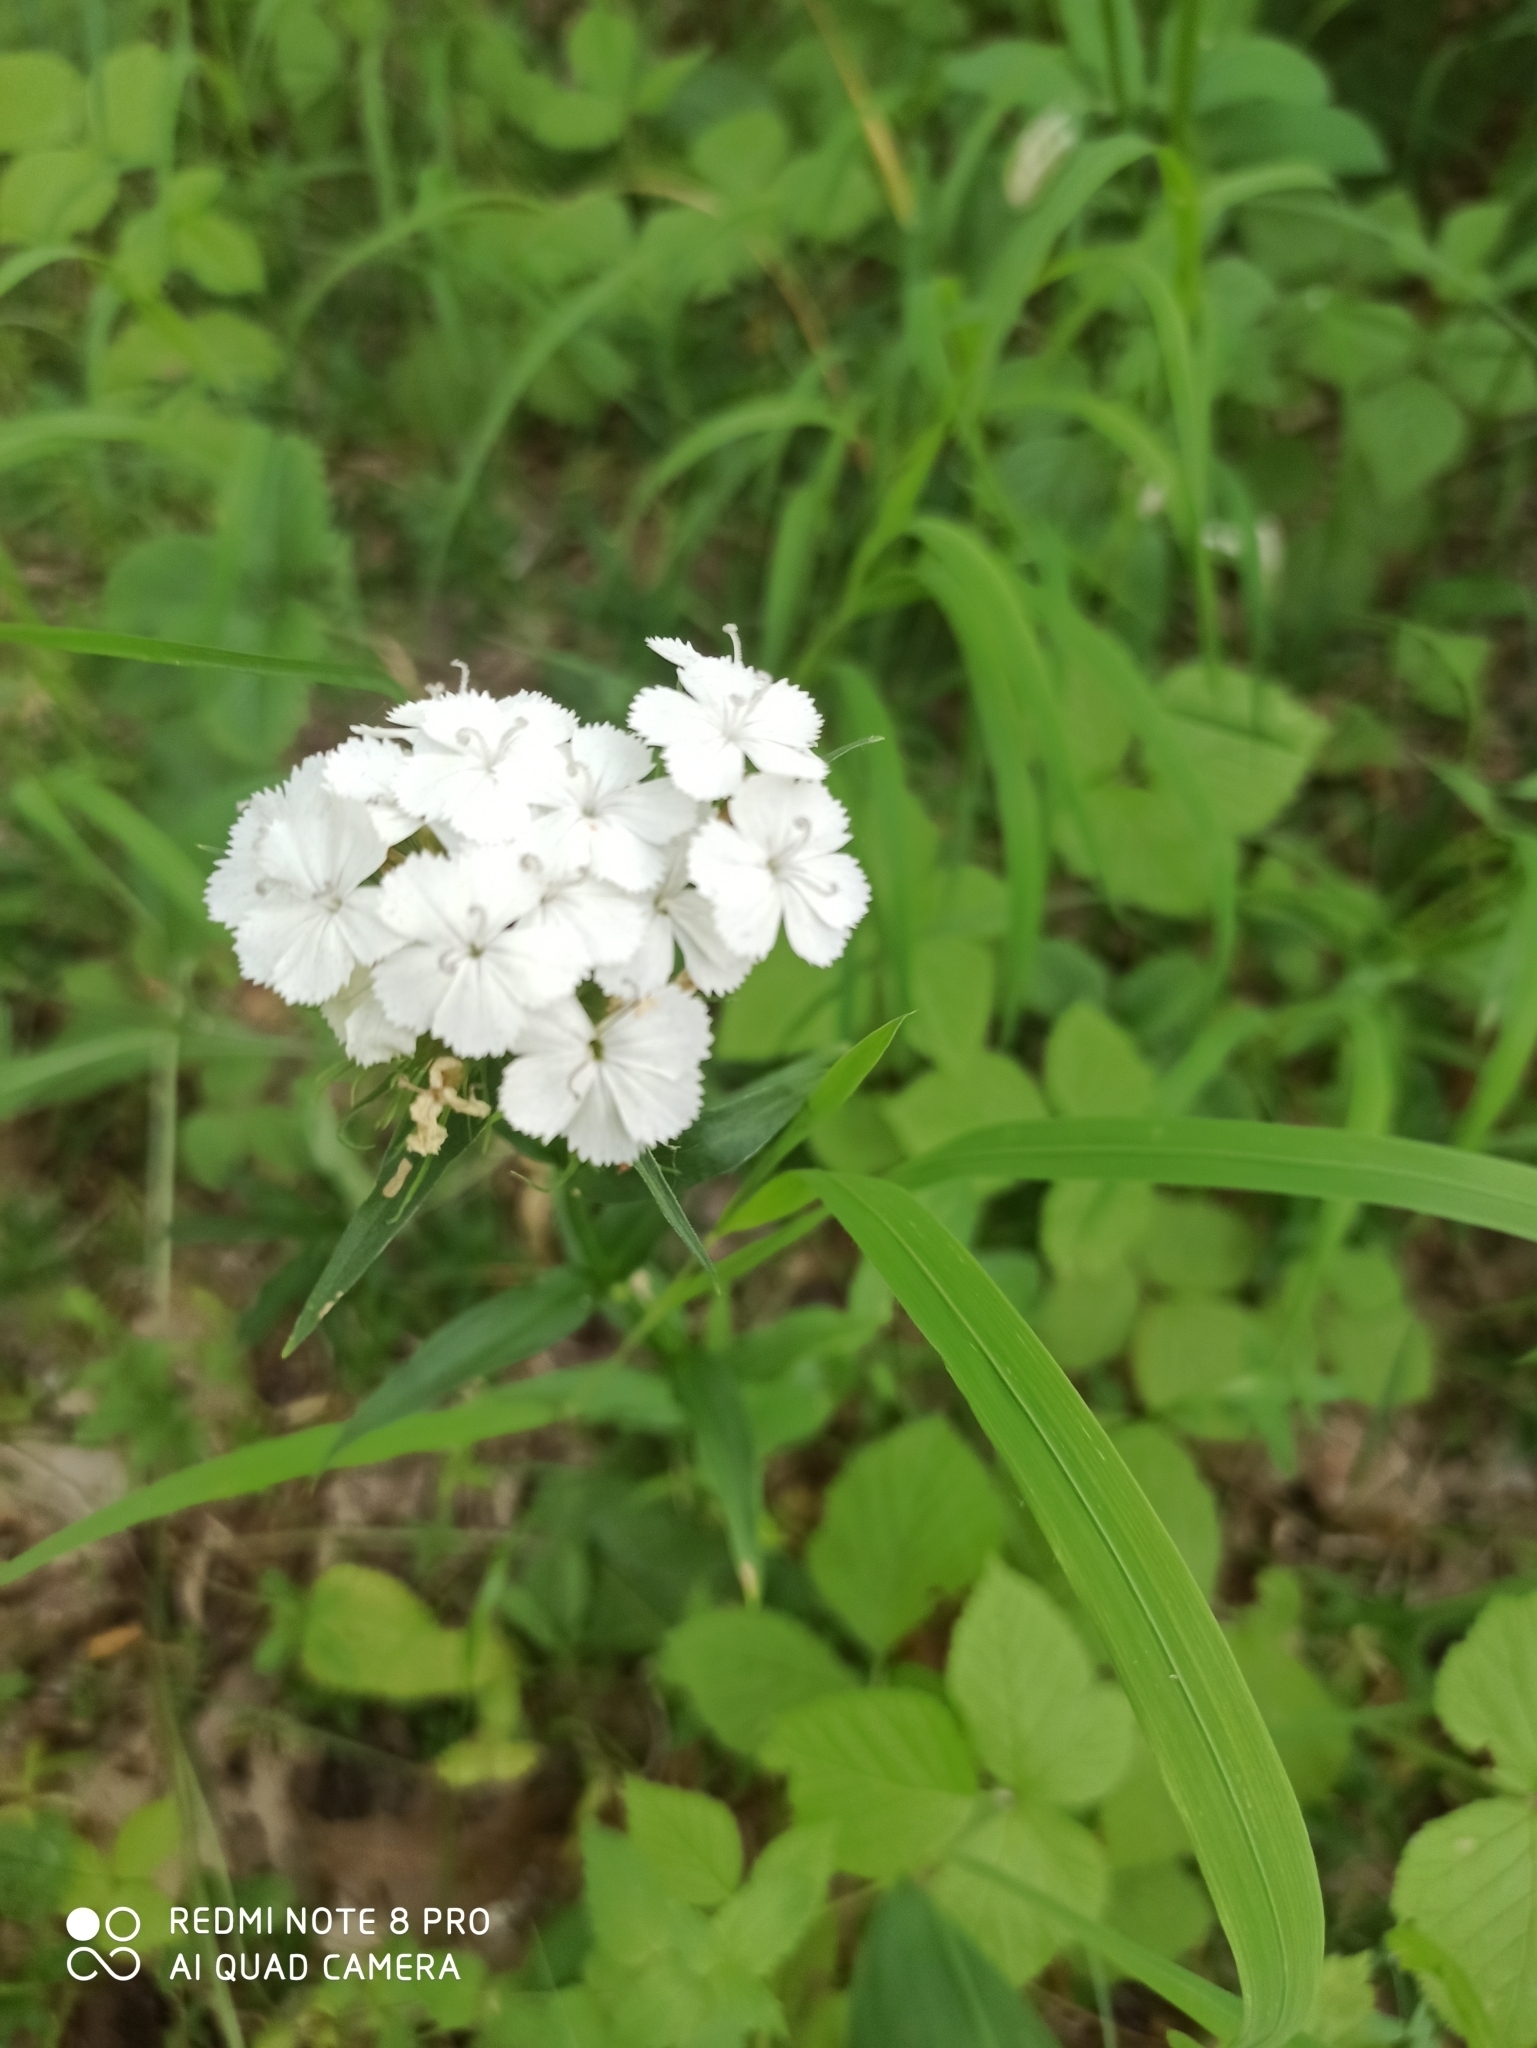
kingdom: Plantae
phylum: Tracheophyta
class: Magnoliopsida
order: Caryophyllales
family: Caryophyllaceae
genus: Dianthus
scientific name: Dianthus barbatus
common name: Sweet-william
